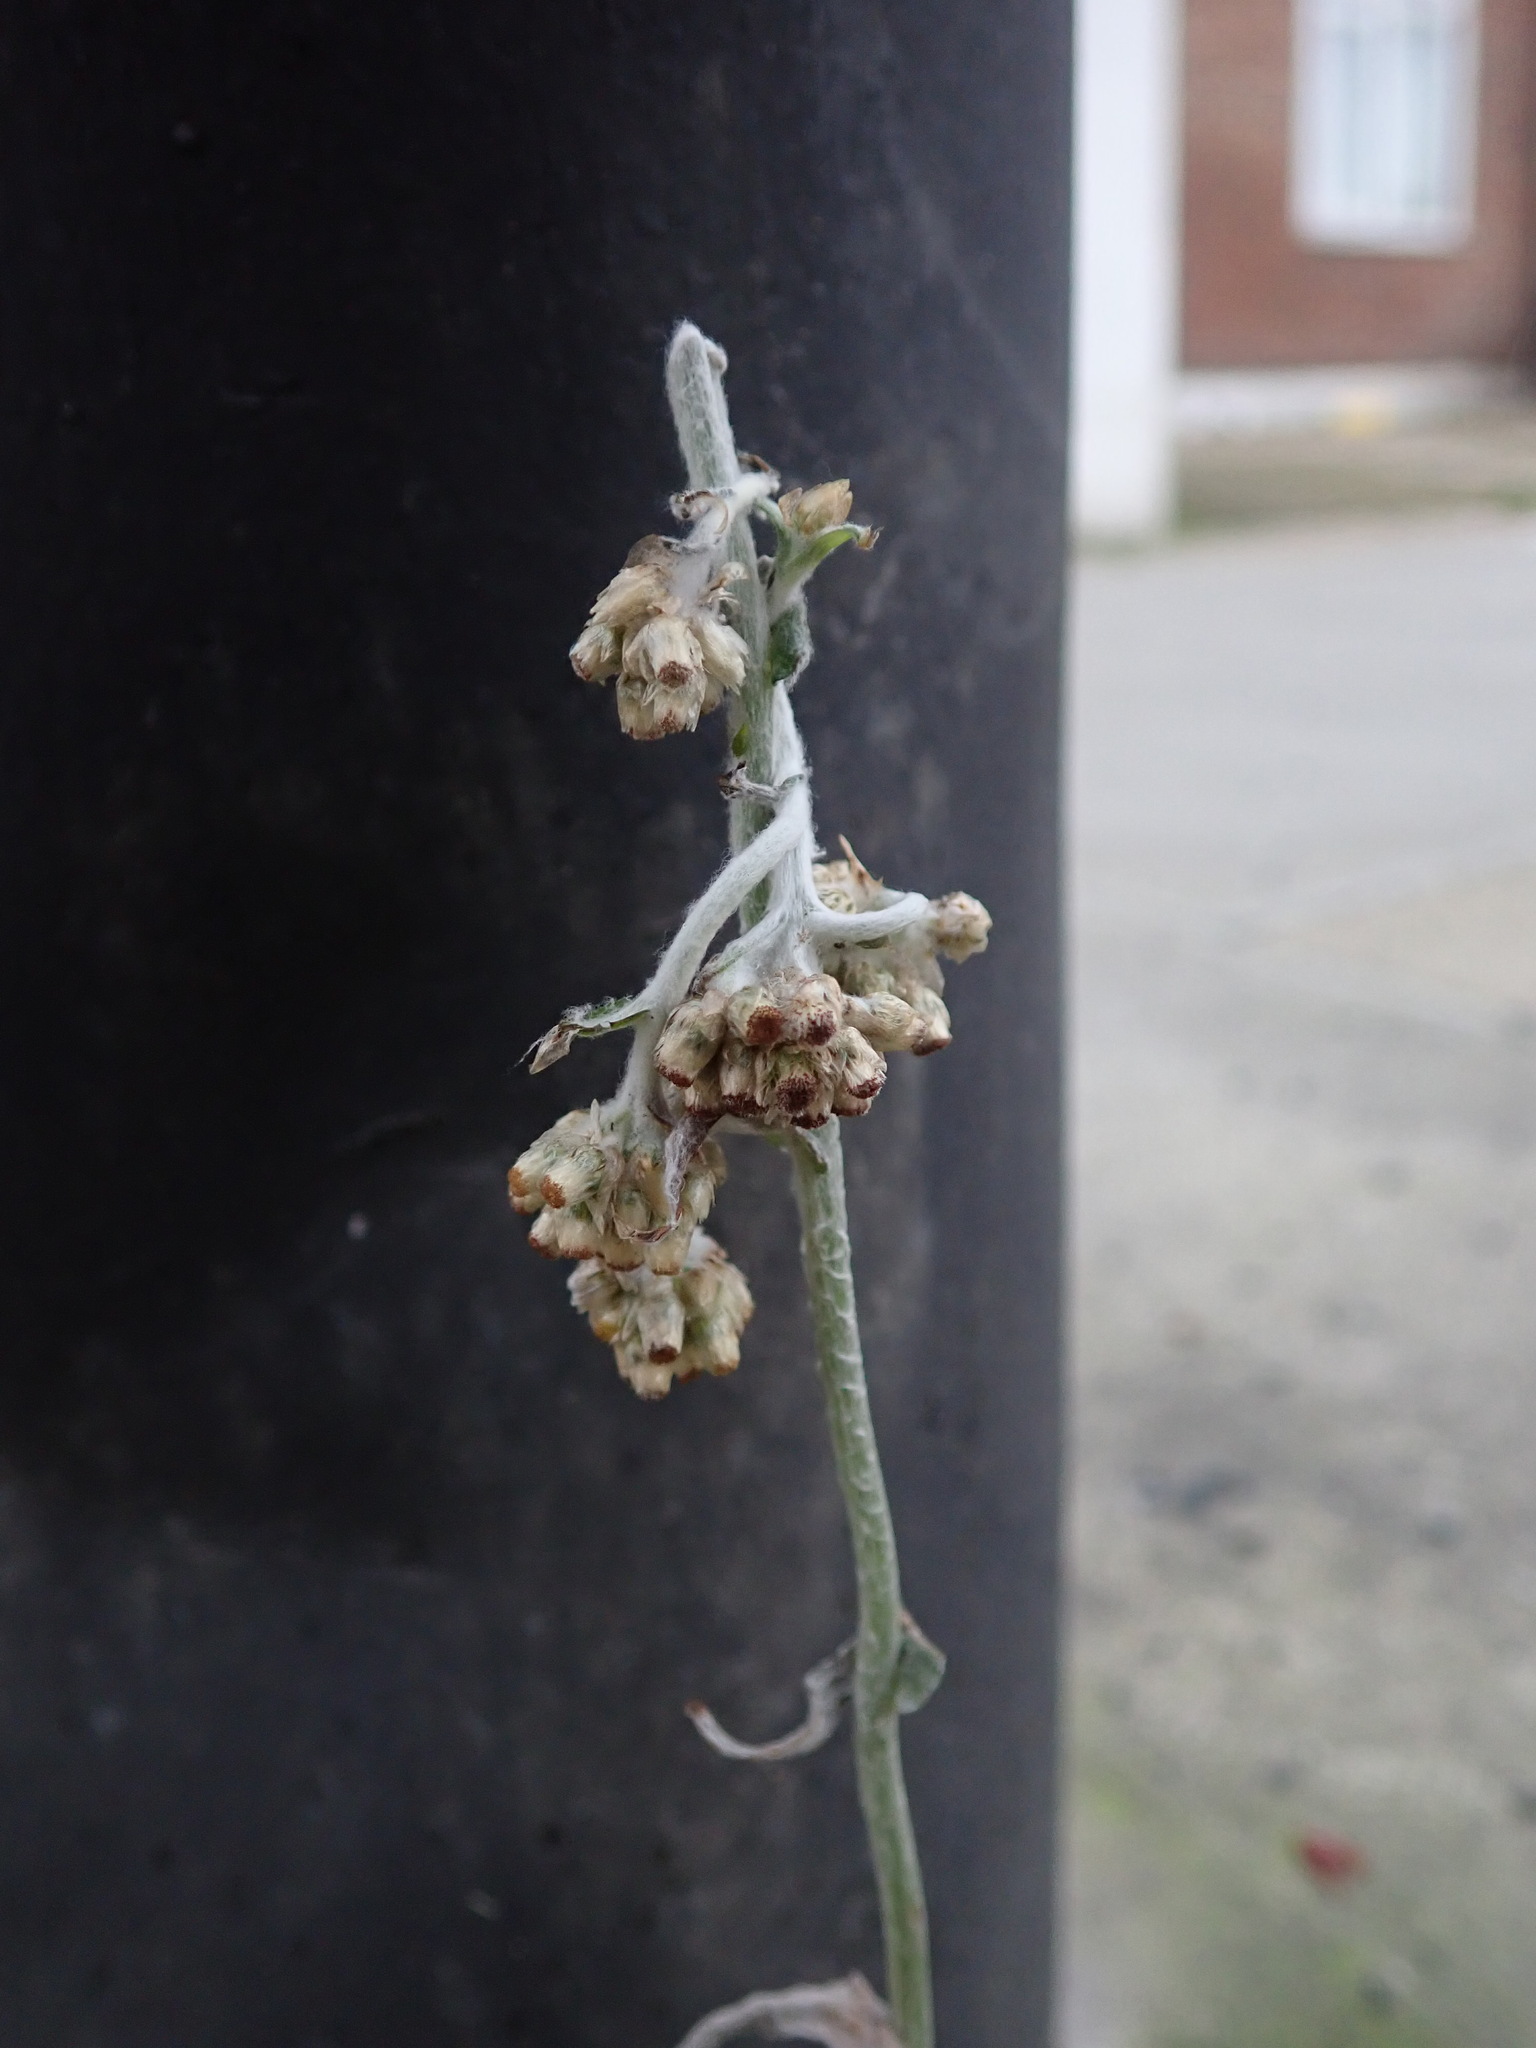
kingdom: Plantae
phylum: Tracheophyta
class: Magnoliopsida
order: Asterales
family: Asteraceae
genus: Helichrysum
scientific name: Helichrysum luteoalbum
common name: Daisy
